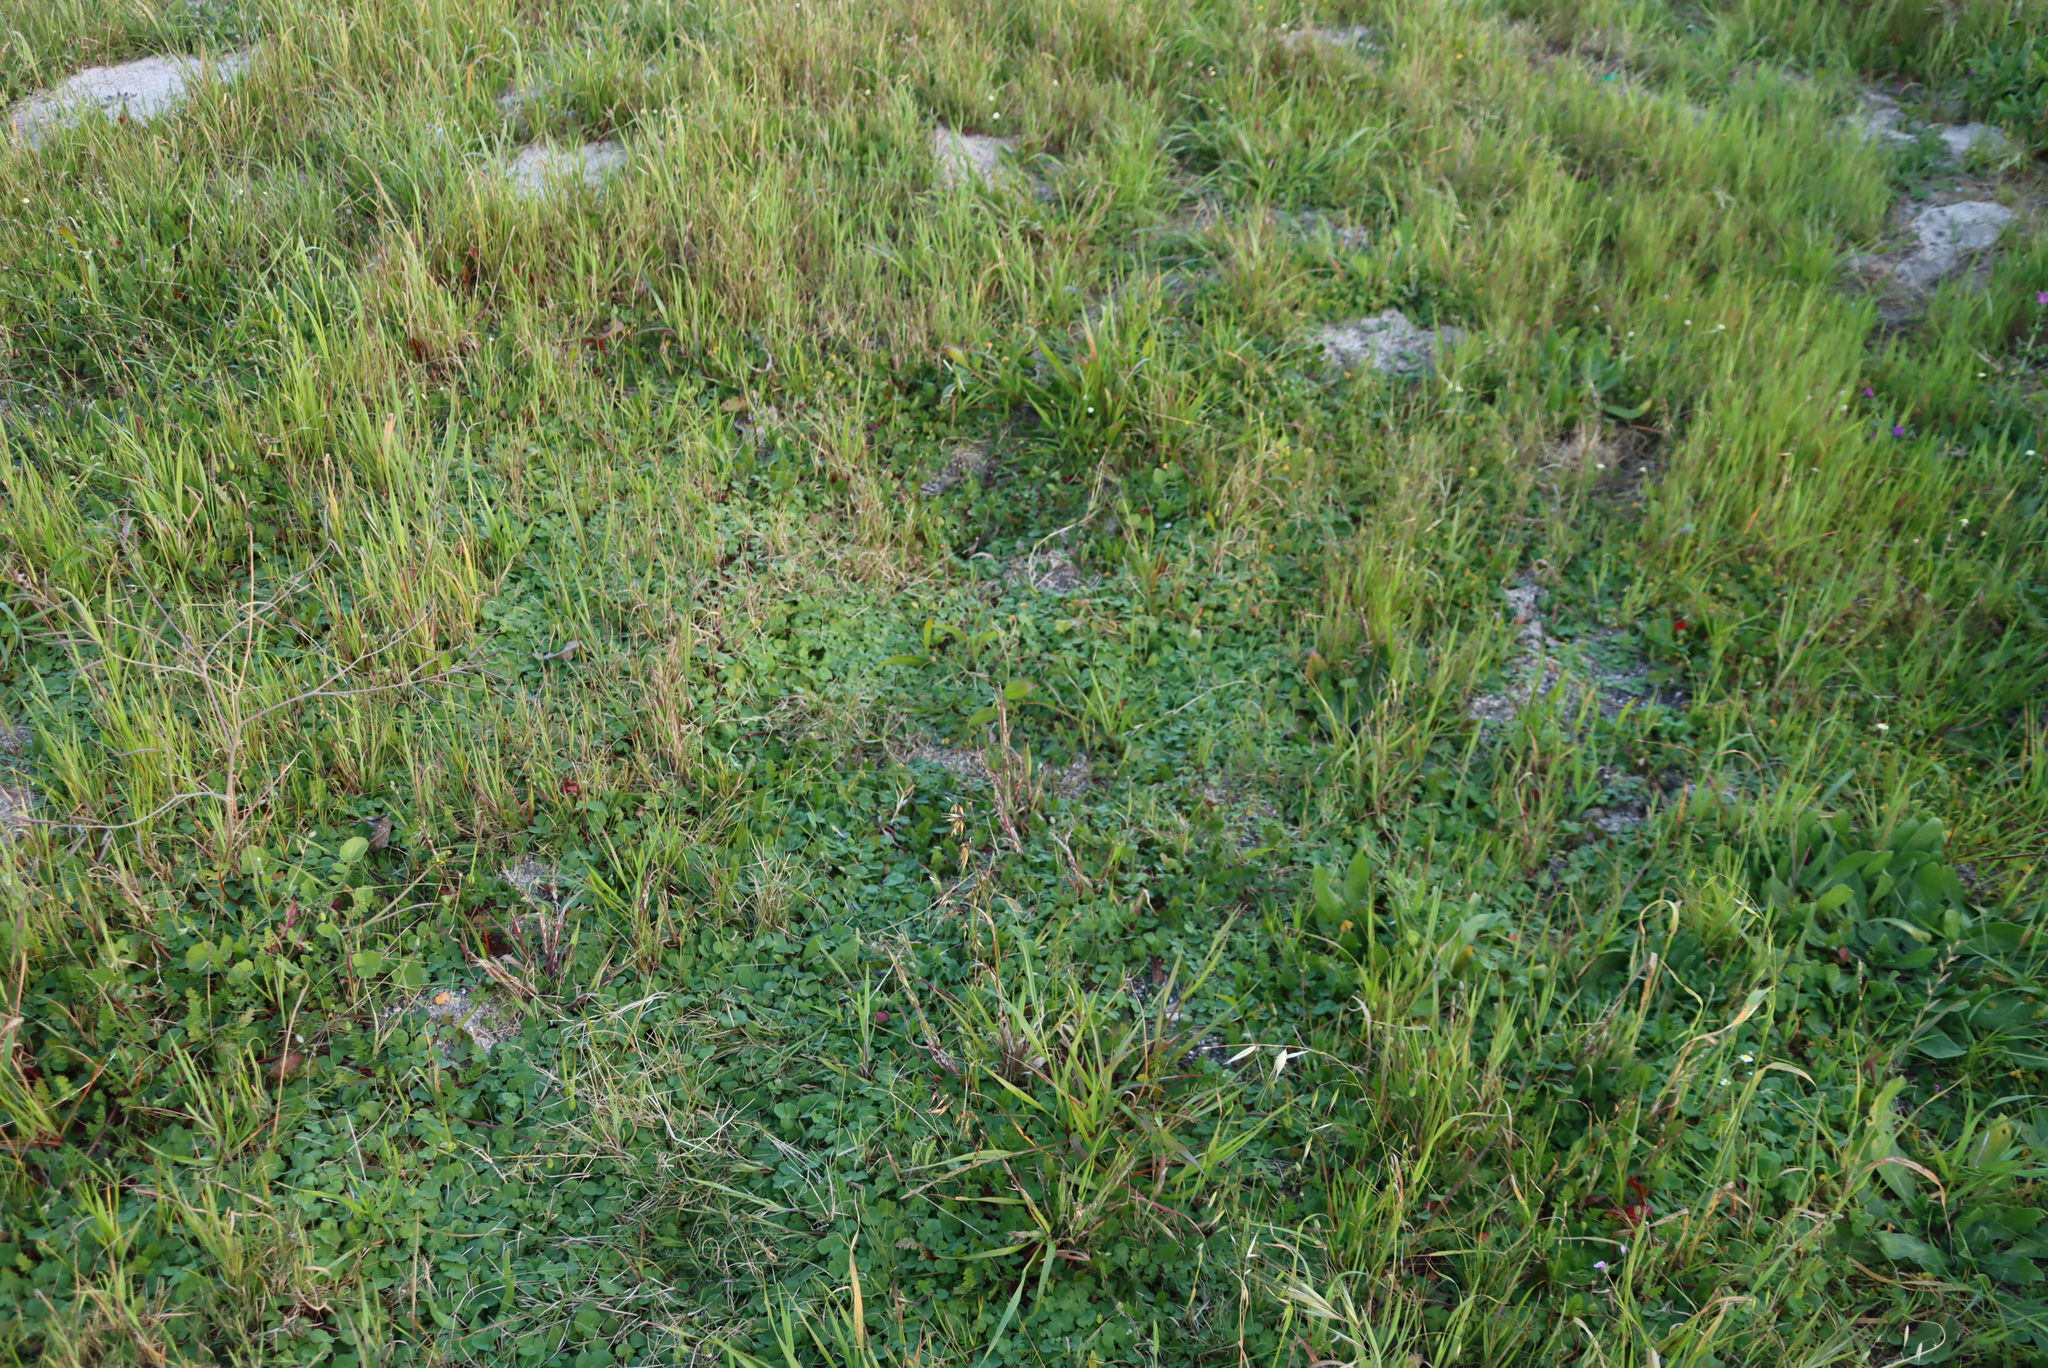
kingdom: Plantae
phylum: Tracheophyta
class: Magnoliopsida
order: Oxalidales
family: Oxalidaceae
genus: Oxalis
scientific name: Oxalis purpurea
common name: Purple woodsorrel
